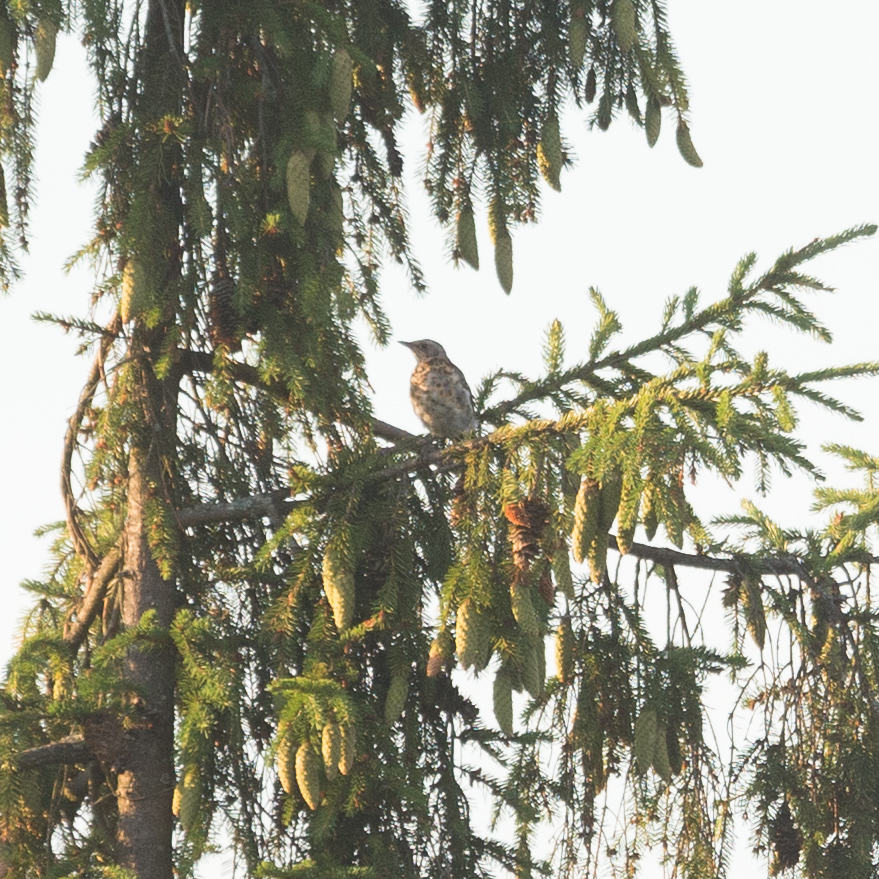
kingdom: Animalia
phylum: Chordata
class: Aves
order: Passeriformes
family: Turdidae
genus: Turdus
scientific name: Turdus pilaris
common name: Fieldfare
